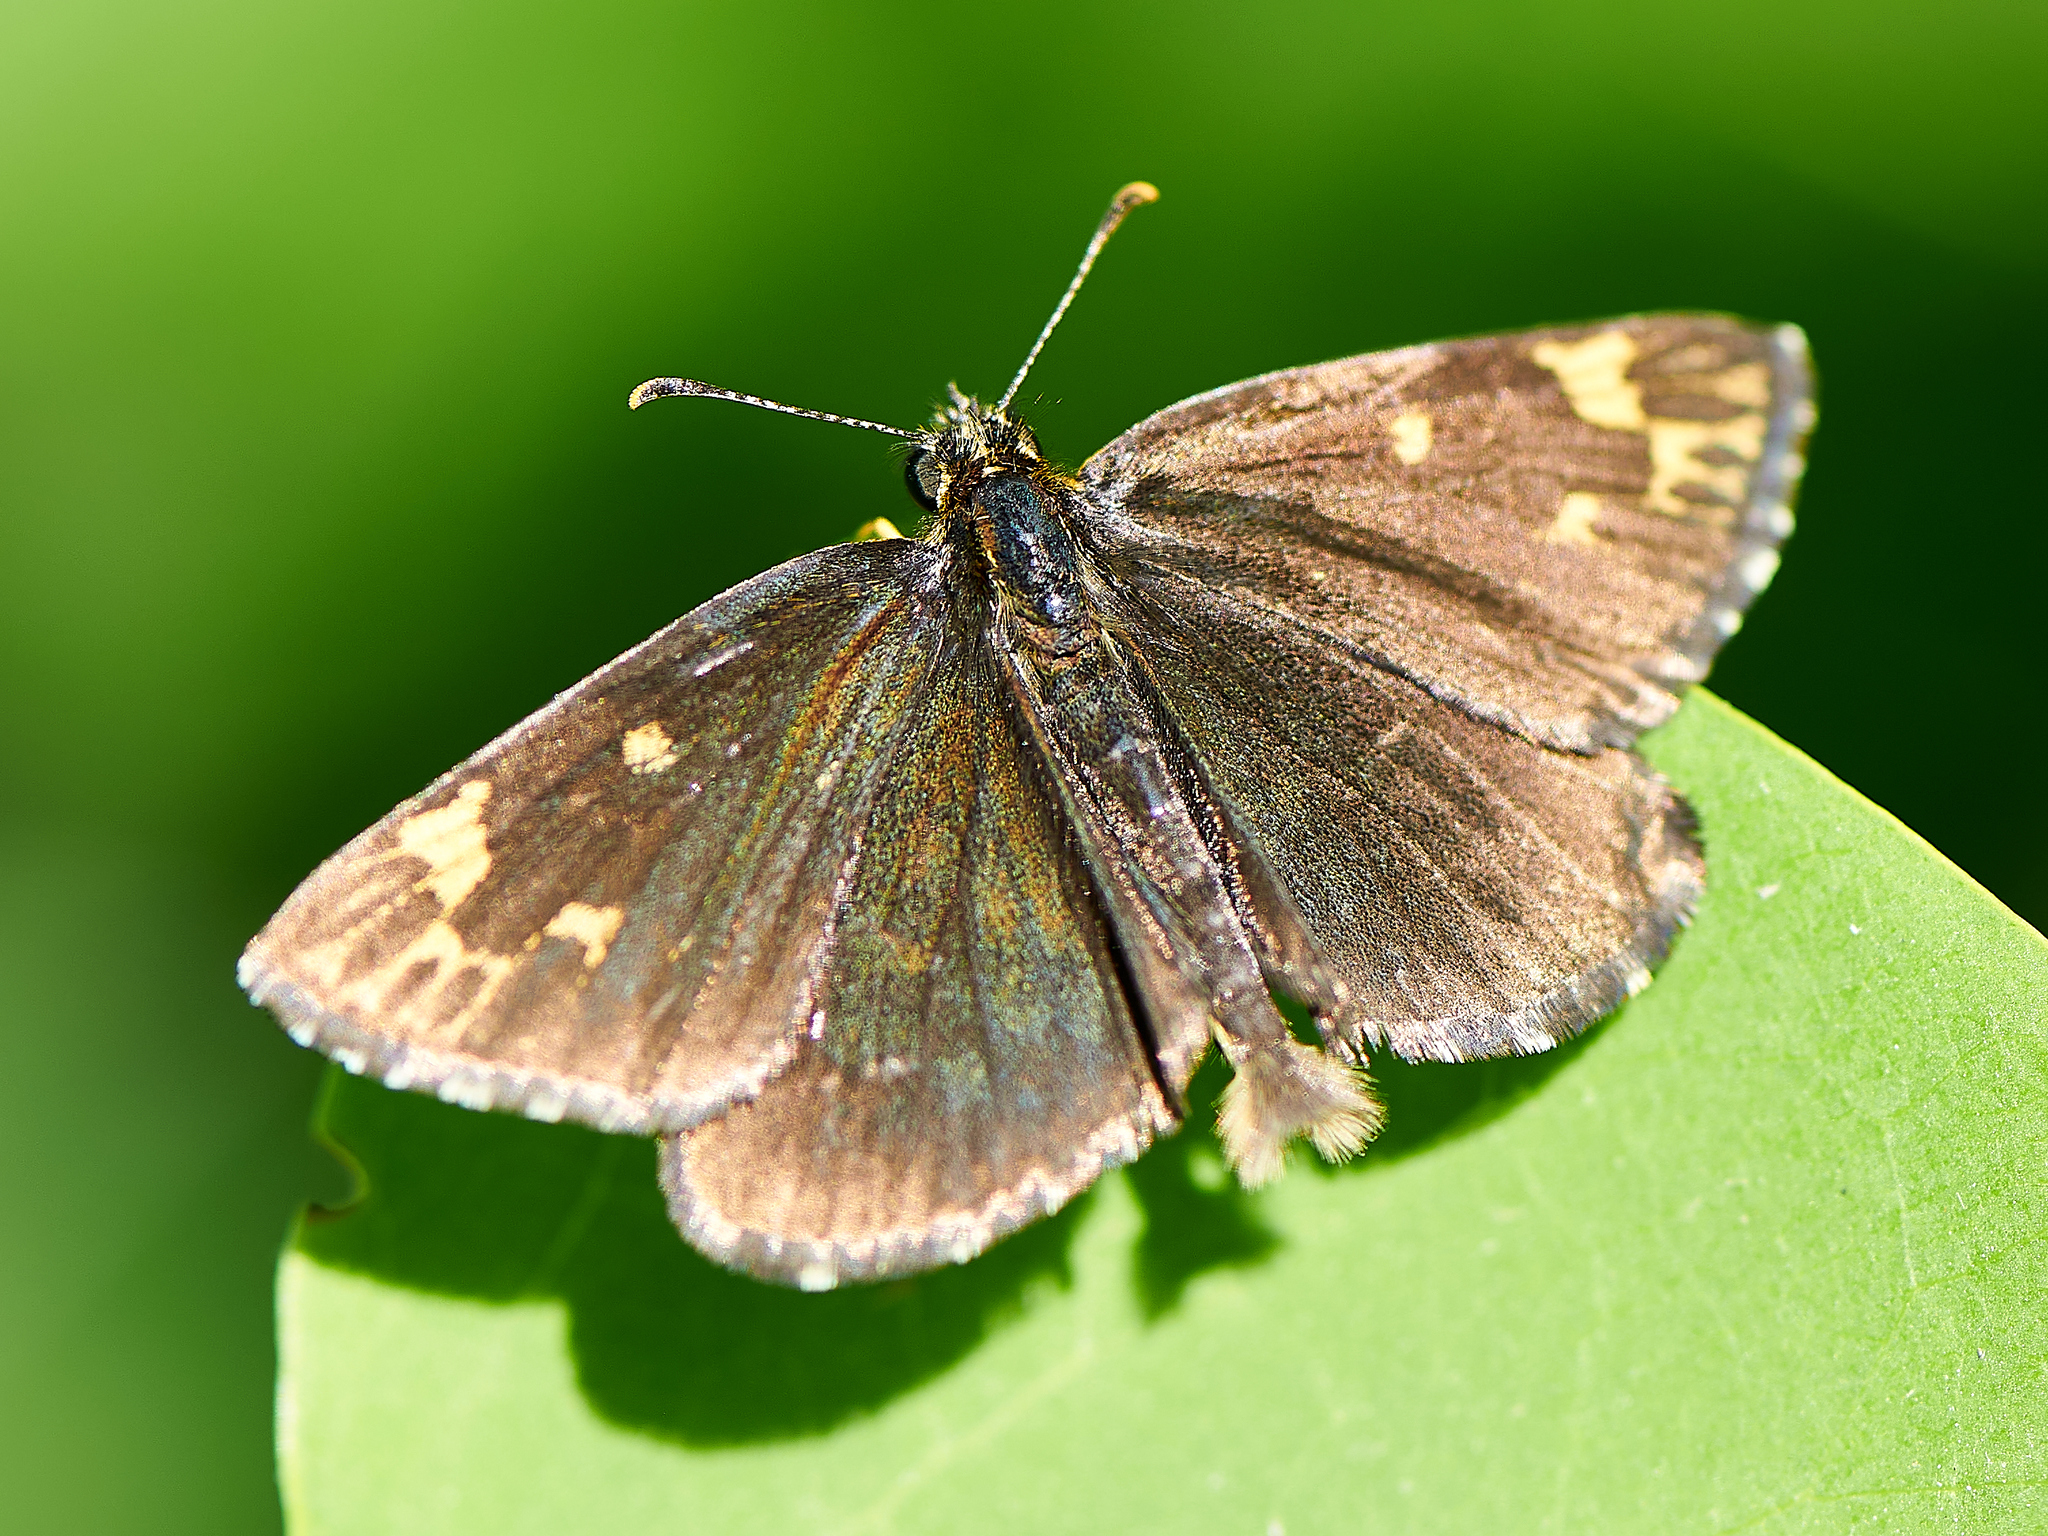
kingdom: Animalia
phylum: Arthropoda
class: Insecta
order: Lepidoptera
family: Hesperiidae
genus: Heteropterus
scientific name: Heteropterus morpheus
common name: Large chequered skipper
